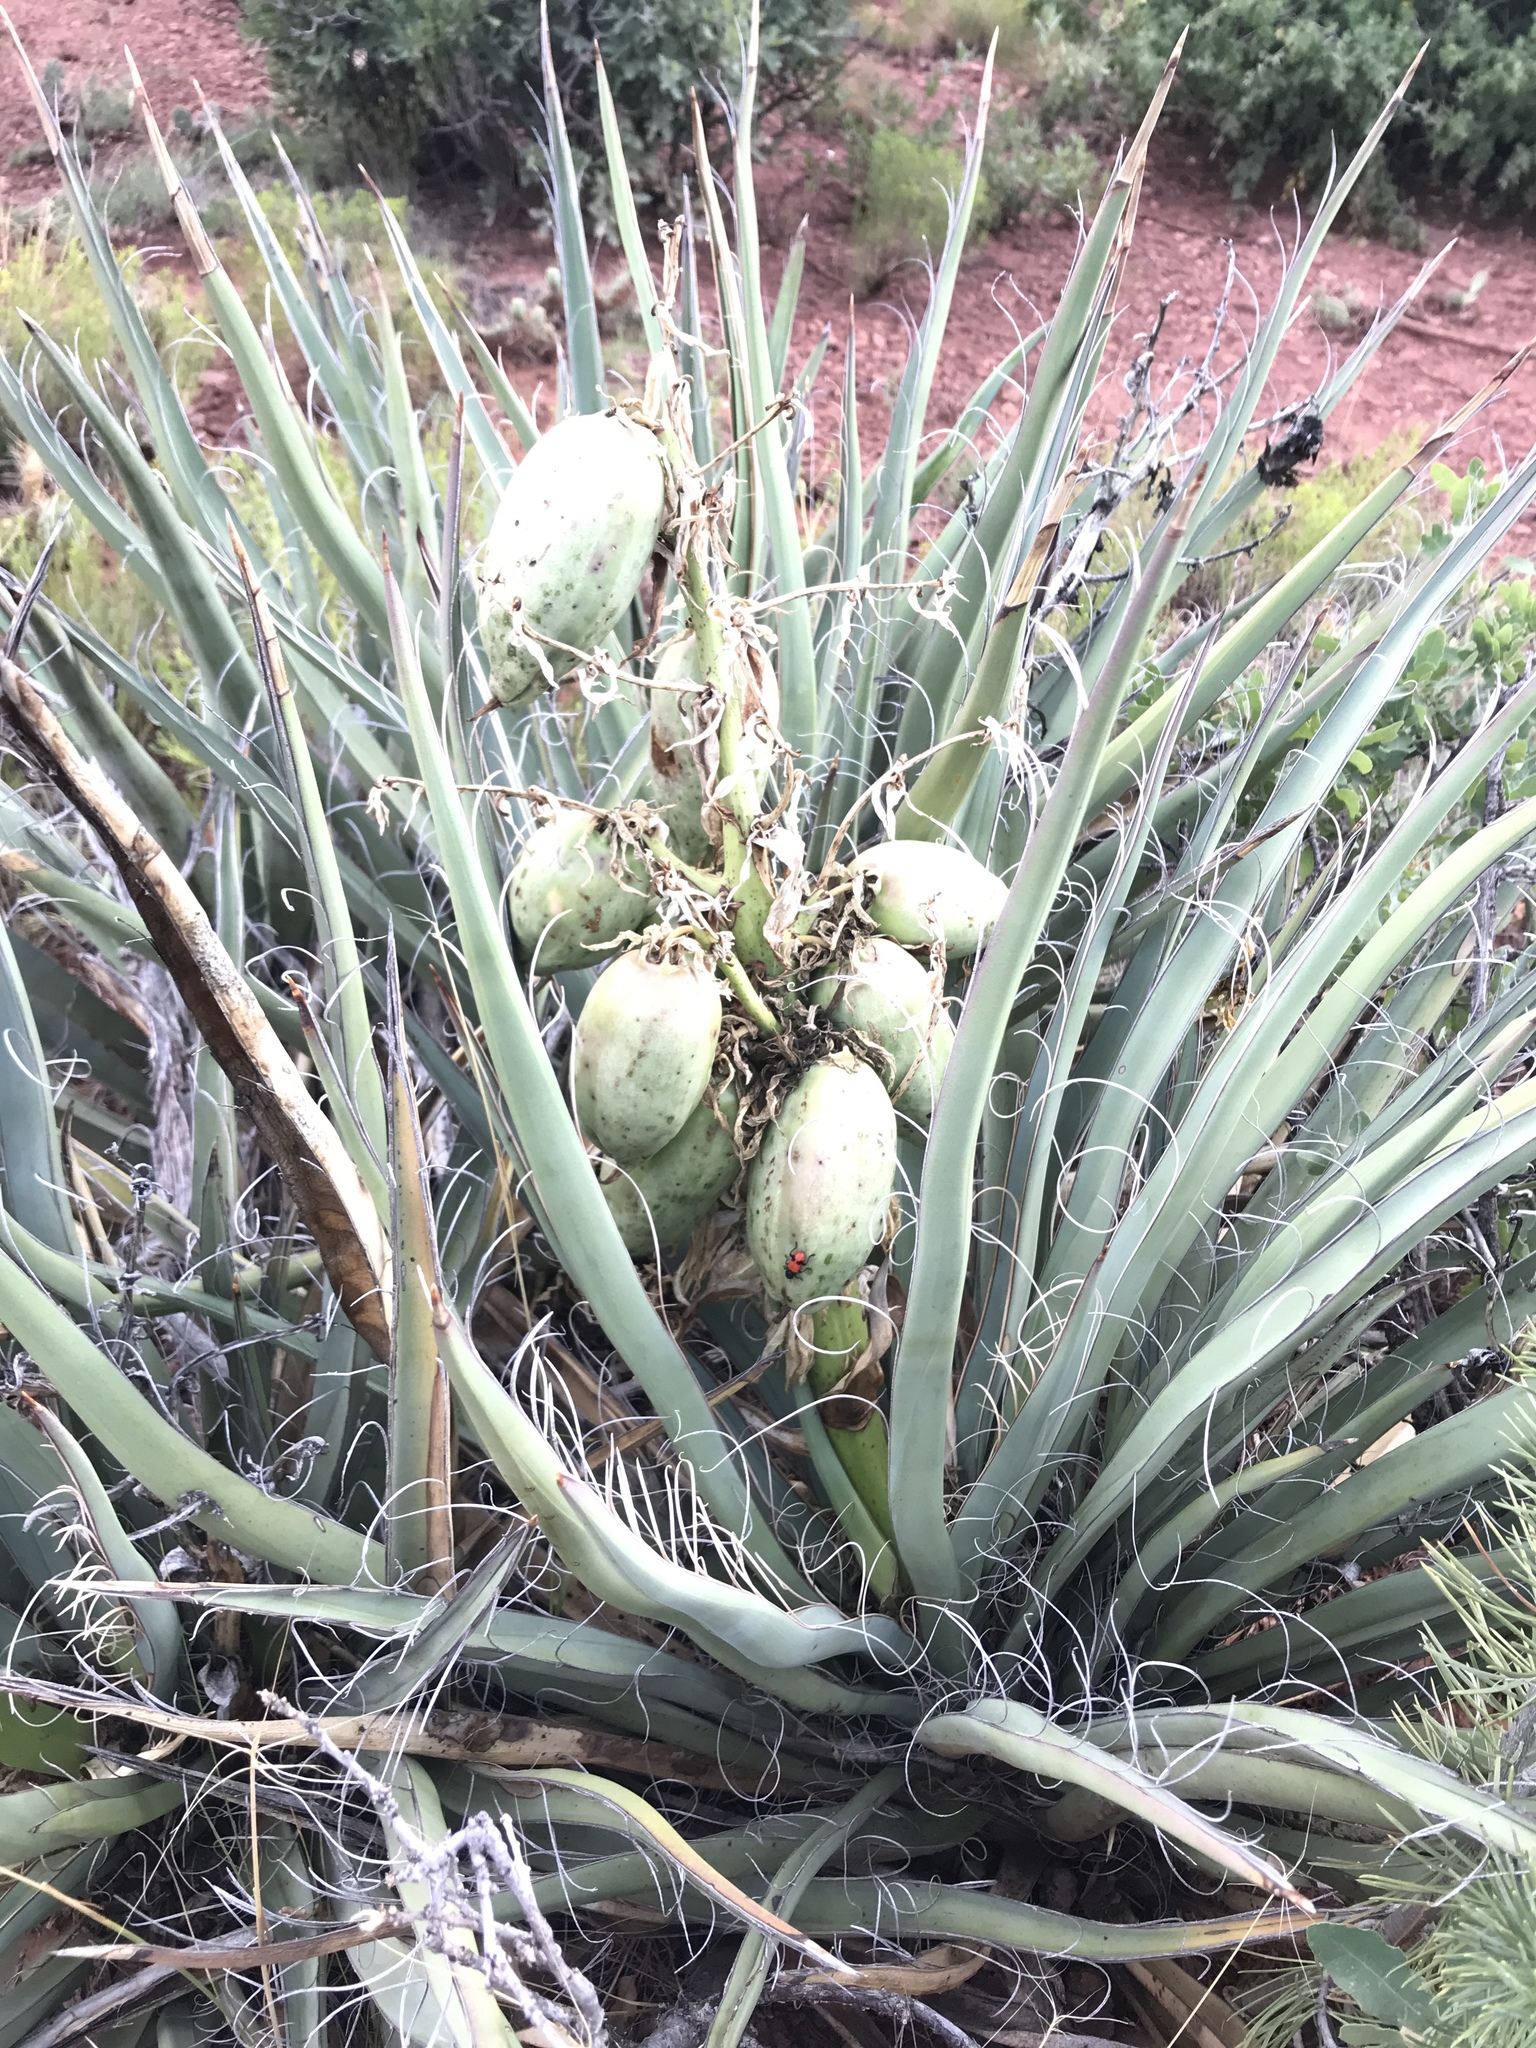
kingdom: Plantae
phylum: Tracheophyta
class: Liliopsida
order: Asparagales
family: Asparagaceae
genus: Yucca
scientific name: Yucca baccata
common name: Banana yucca
